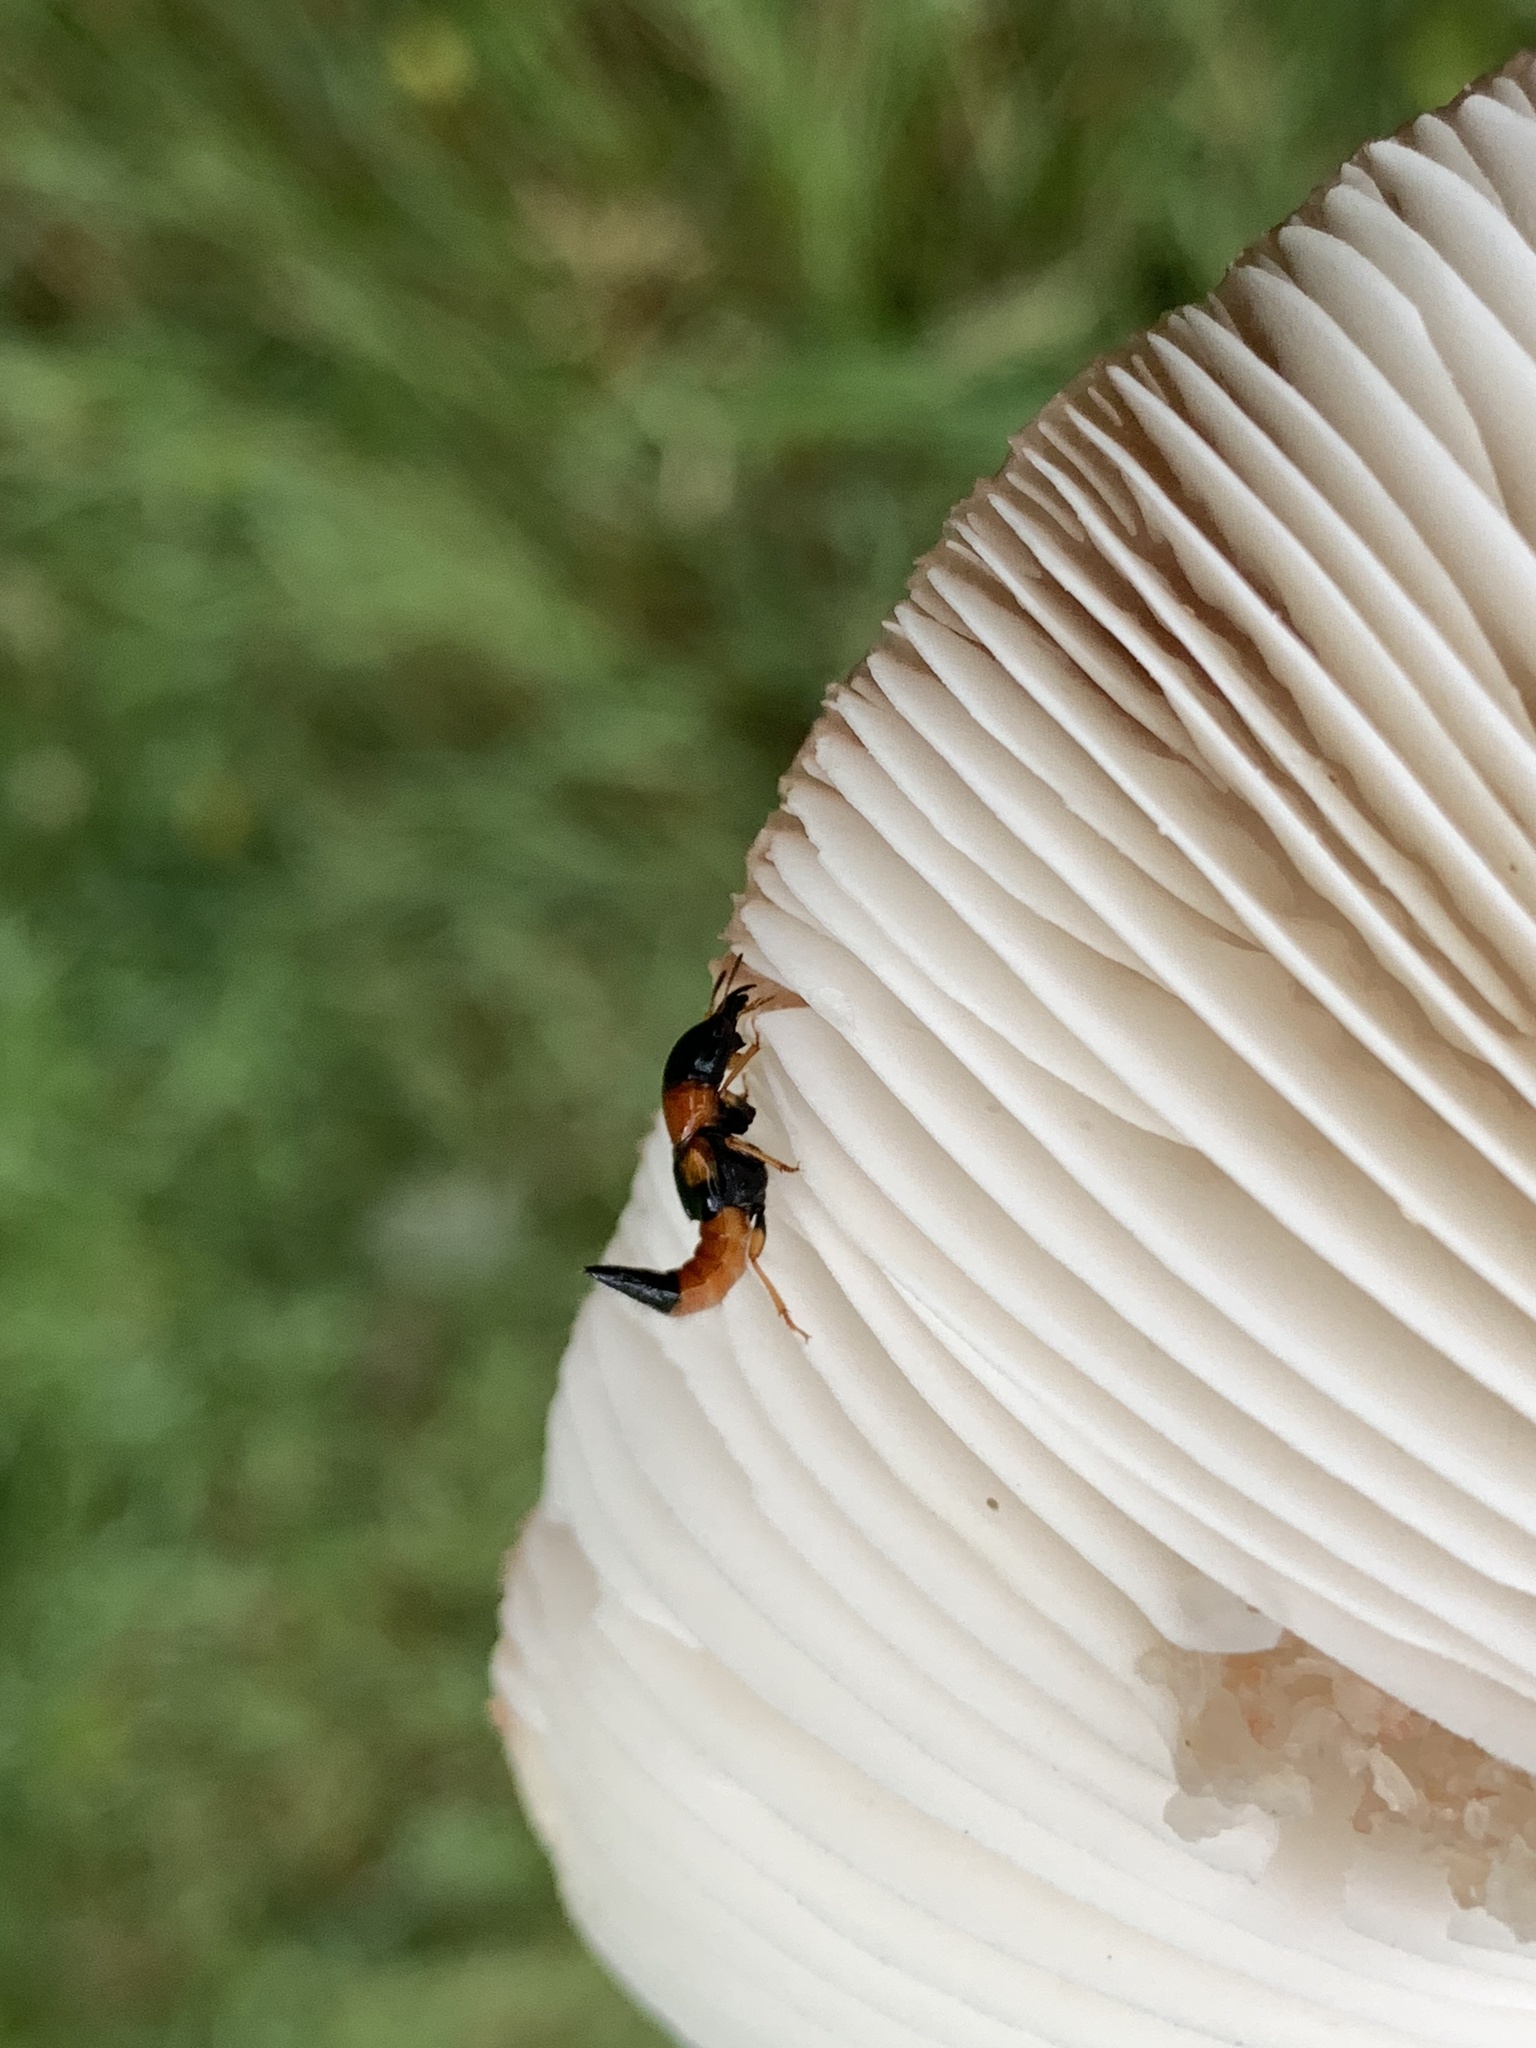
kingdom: Animalia
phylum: Arthropoda
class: Insecta
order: Coleoptera
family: Staphylinidae
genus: Oxyporus
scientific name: Oxyporus rufus
